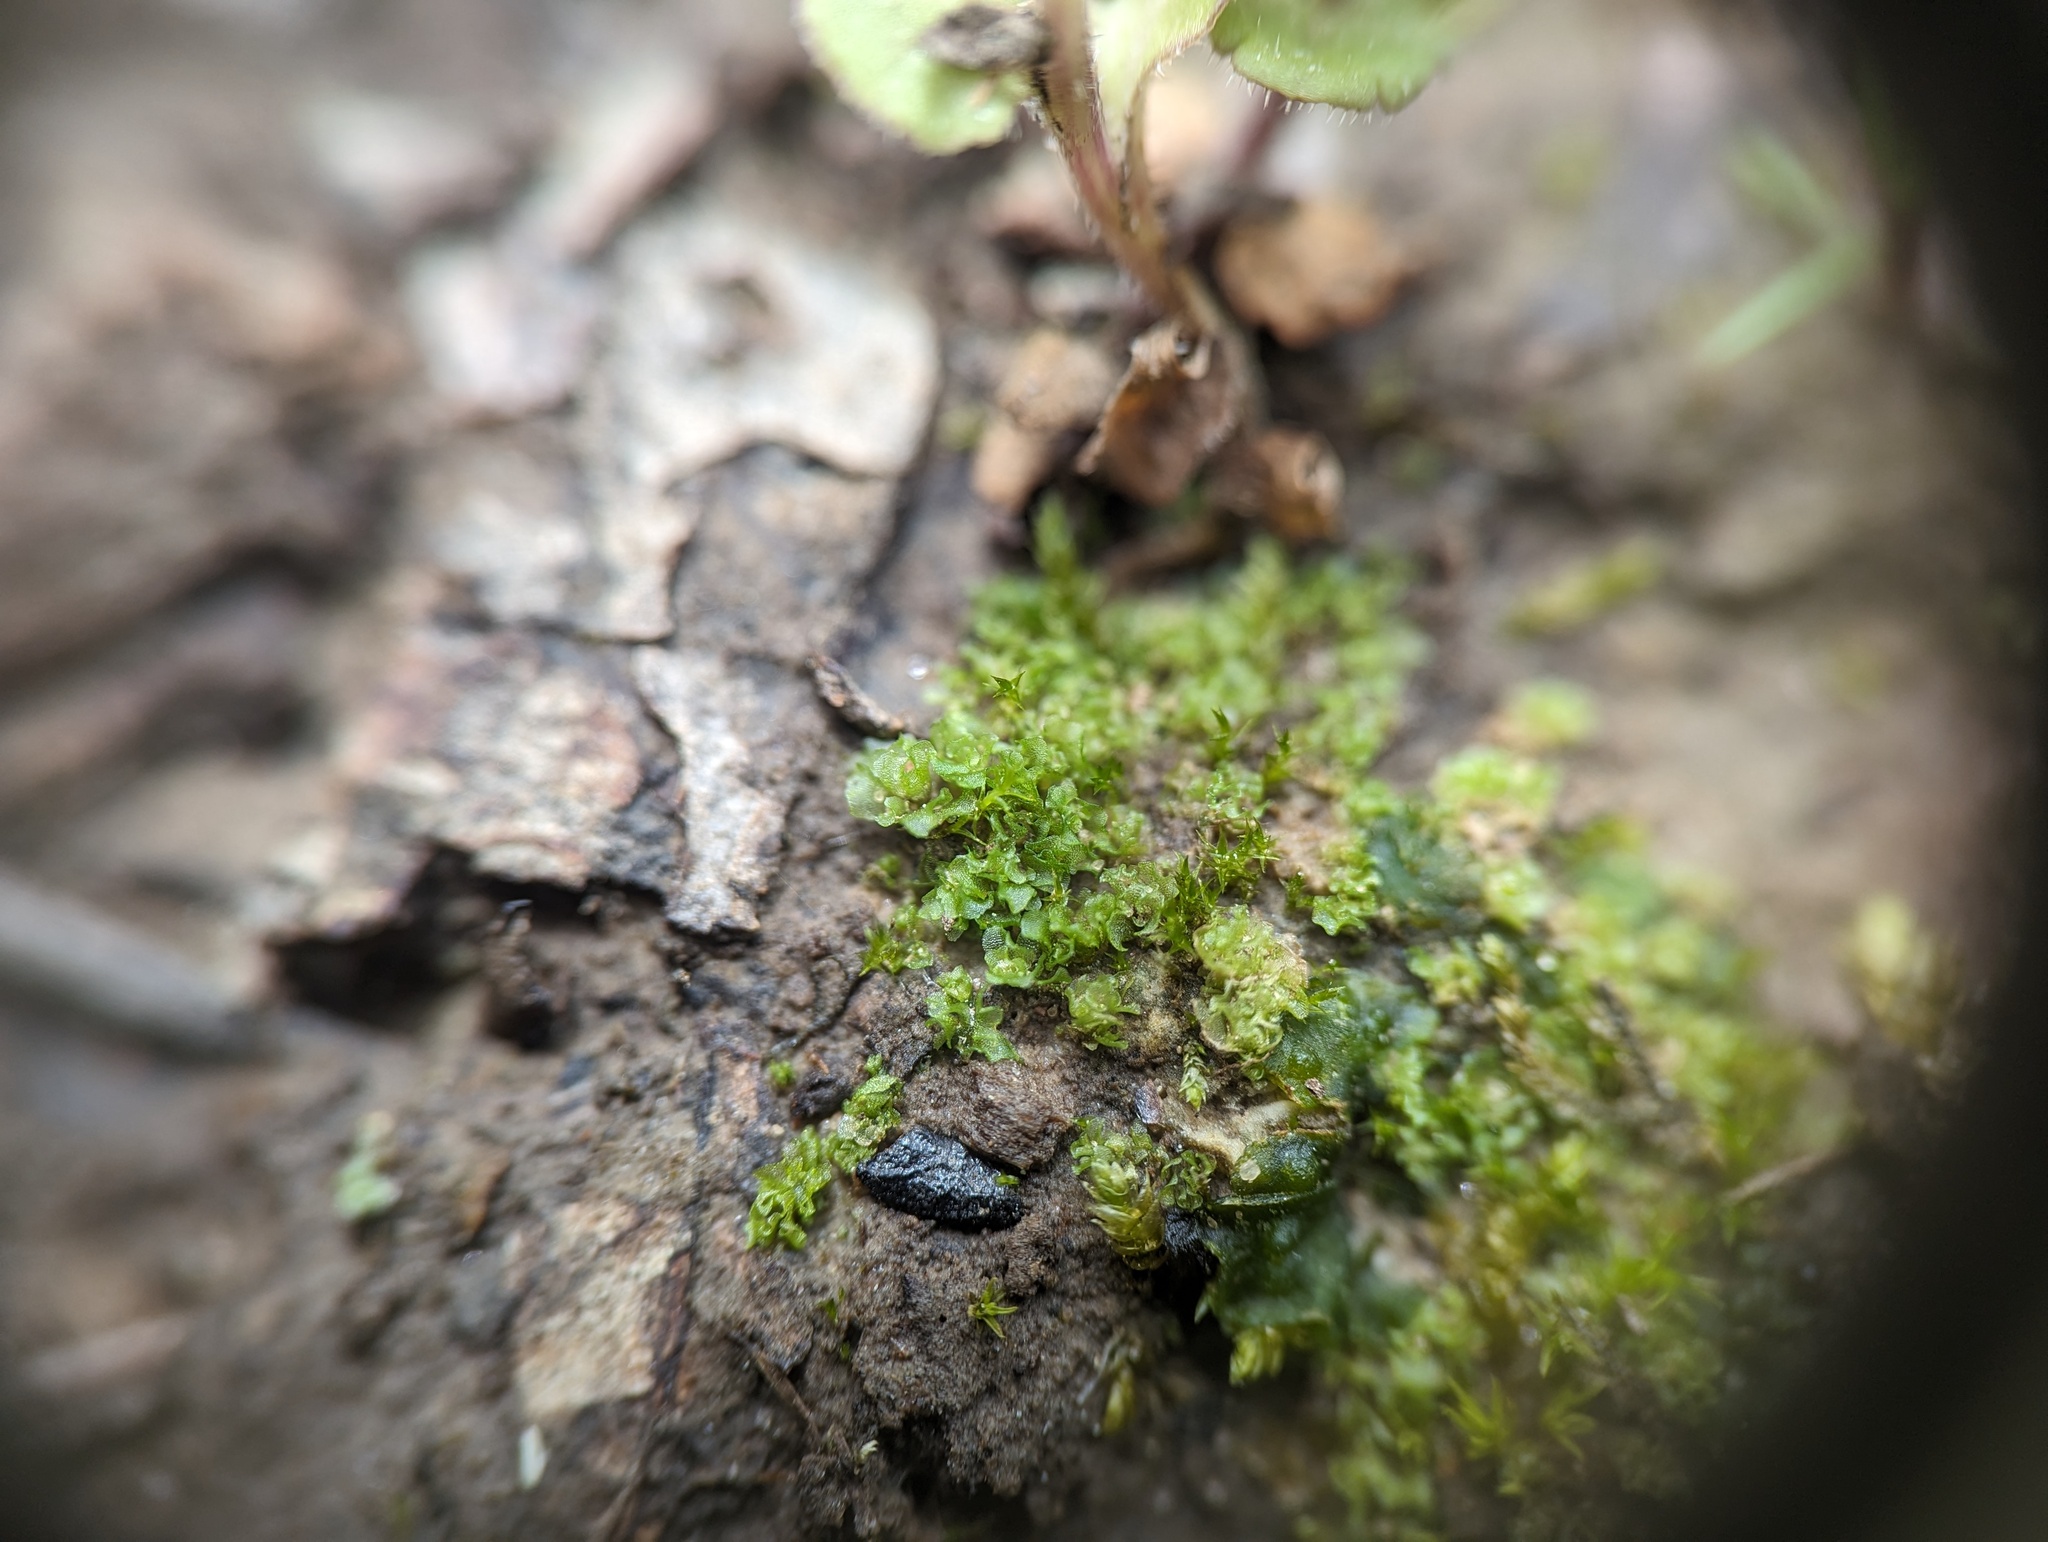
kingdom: Plantae
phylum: Marchantiophyta
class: Jungermanniopsida
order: Fossombroniales
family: Fossombroniaceae
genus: Fossombronia
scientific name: Fossombronia foveolata
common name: Pitted frillwort
